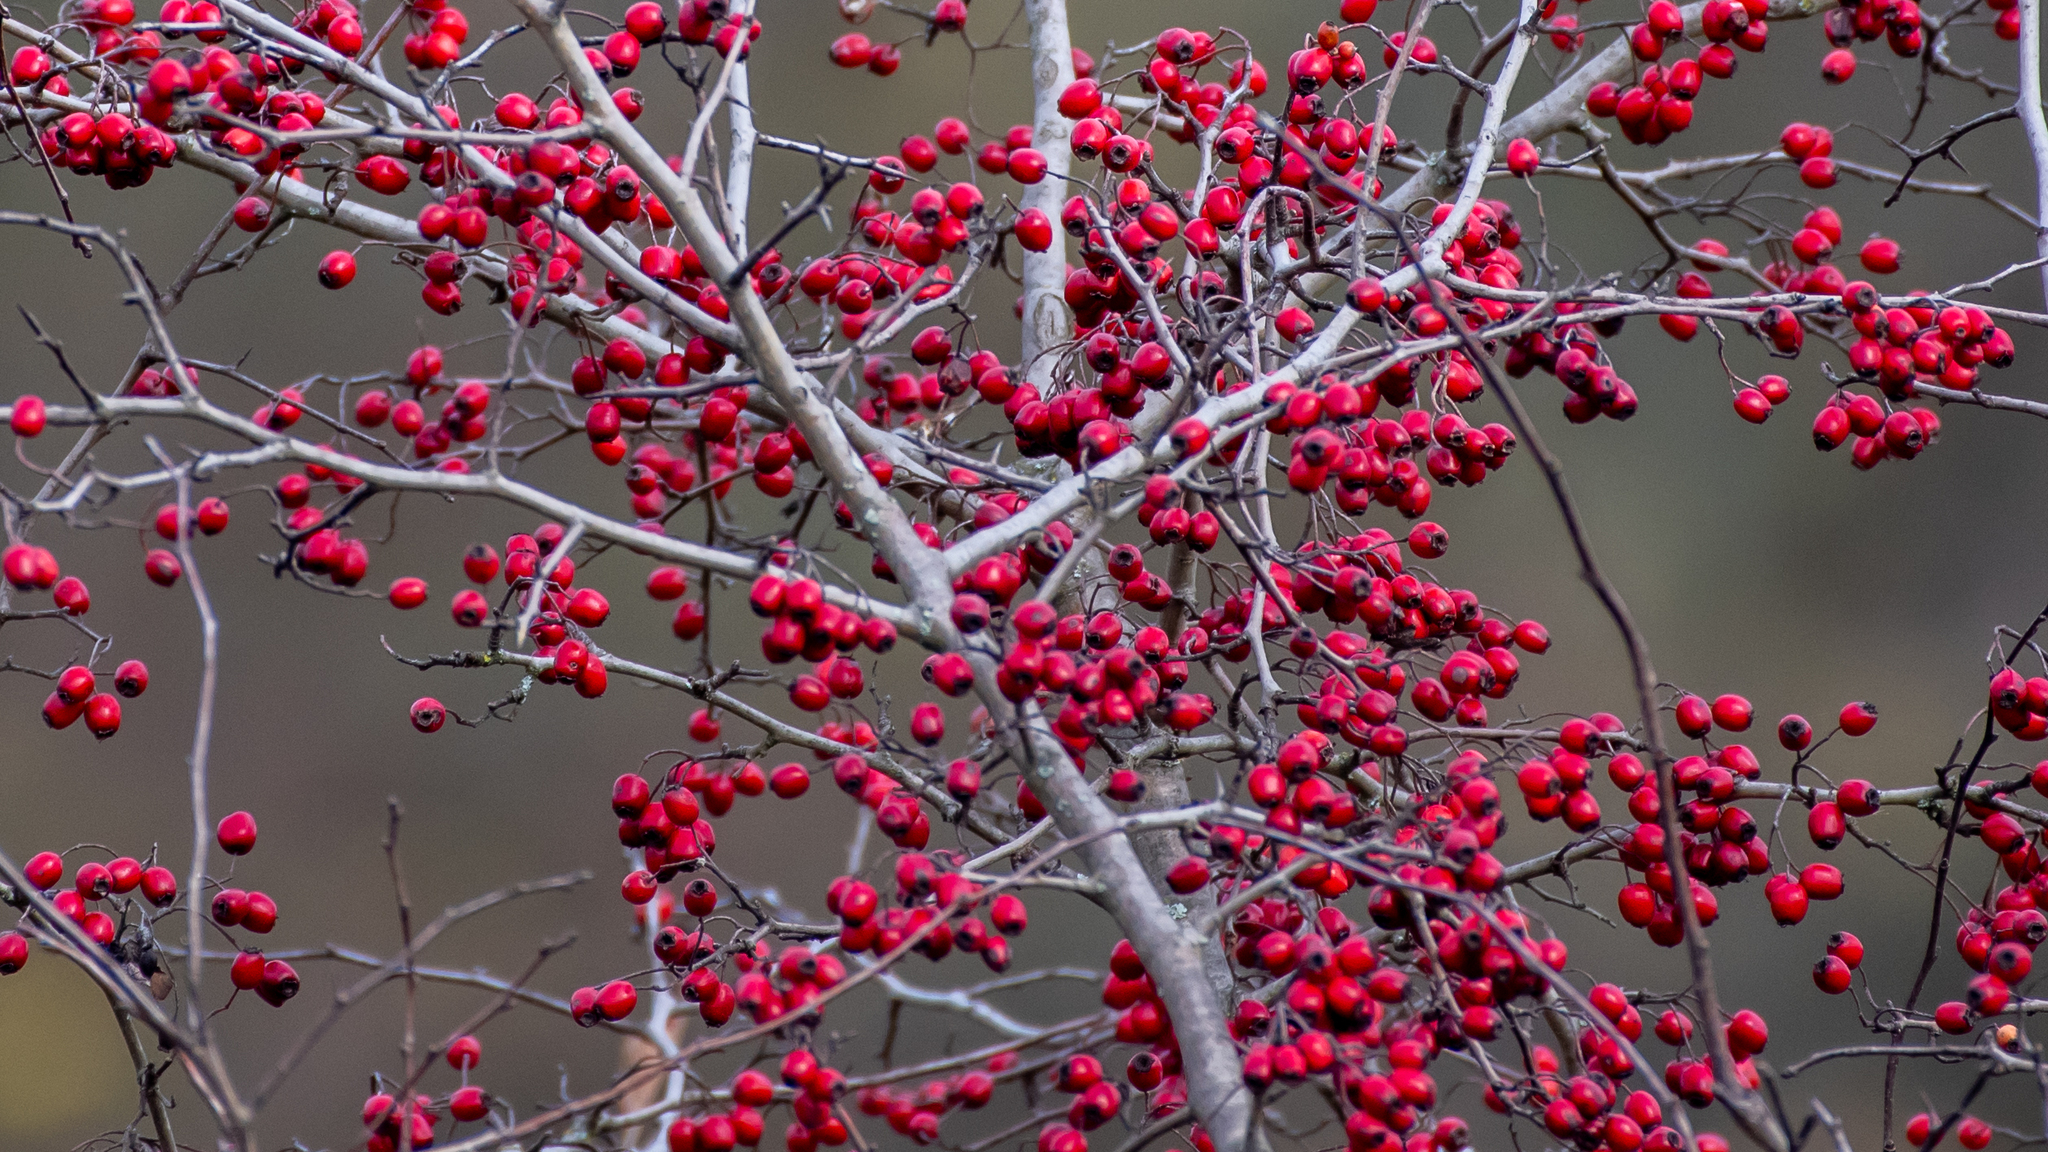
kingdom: Plantae
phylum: Tracheophyta
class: Magnoliopsida
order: Rosales
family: Rosaceae
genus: Crataegus
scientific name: Crataegus monogyna
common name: Hawthorn
